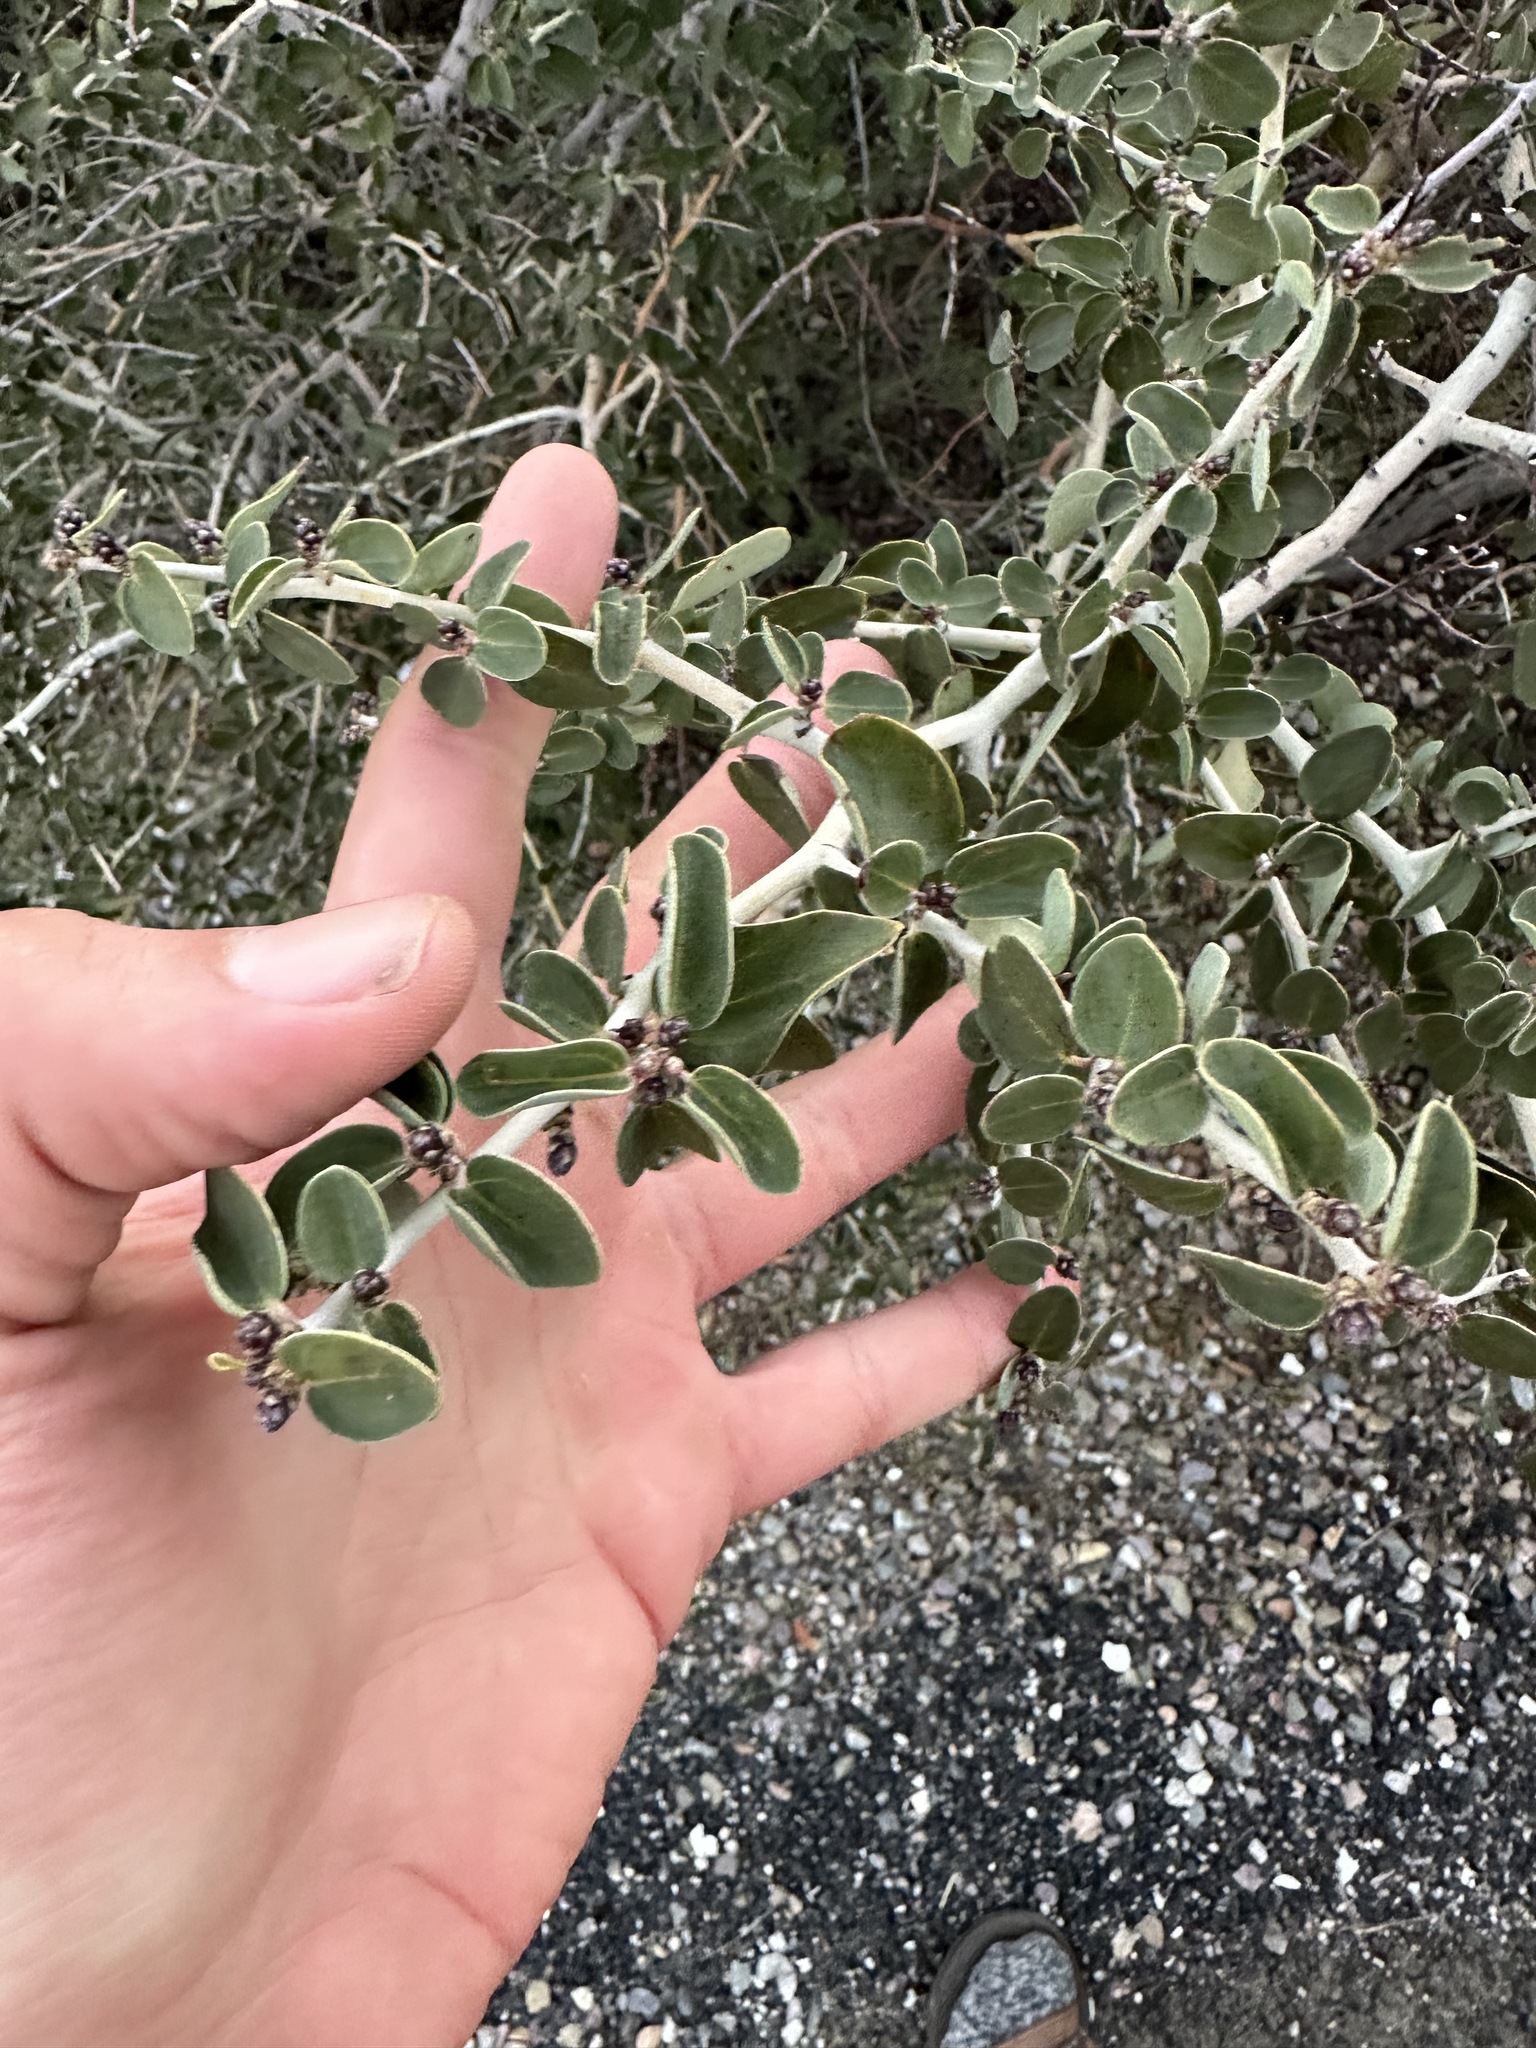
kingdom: Plantae
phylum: Tracheophyta
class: Magnoliopsida
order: Rosales
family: Rhamnaceae
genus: Ceanothus
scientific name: Ceanothus leucodermis
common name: Chaparral whitethorn
